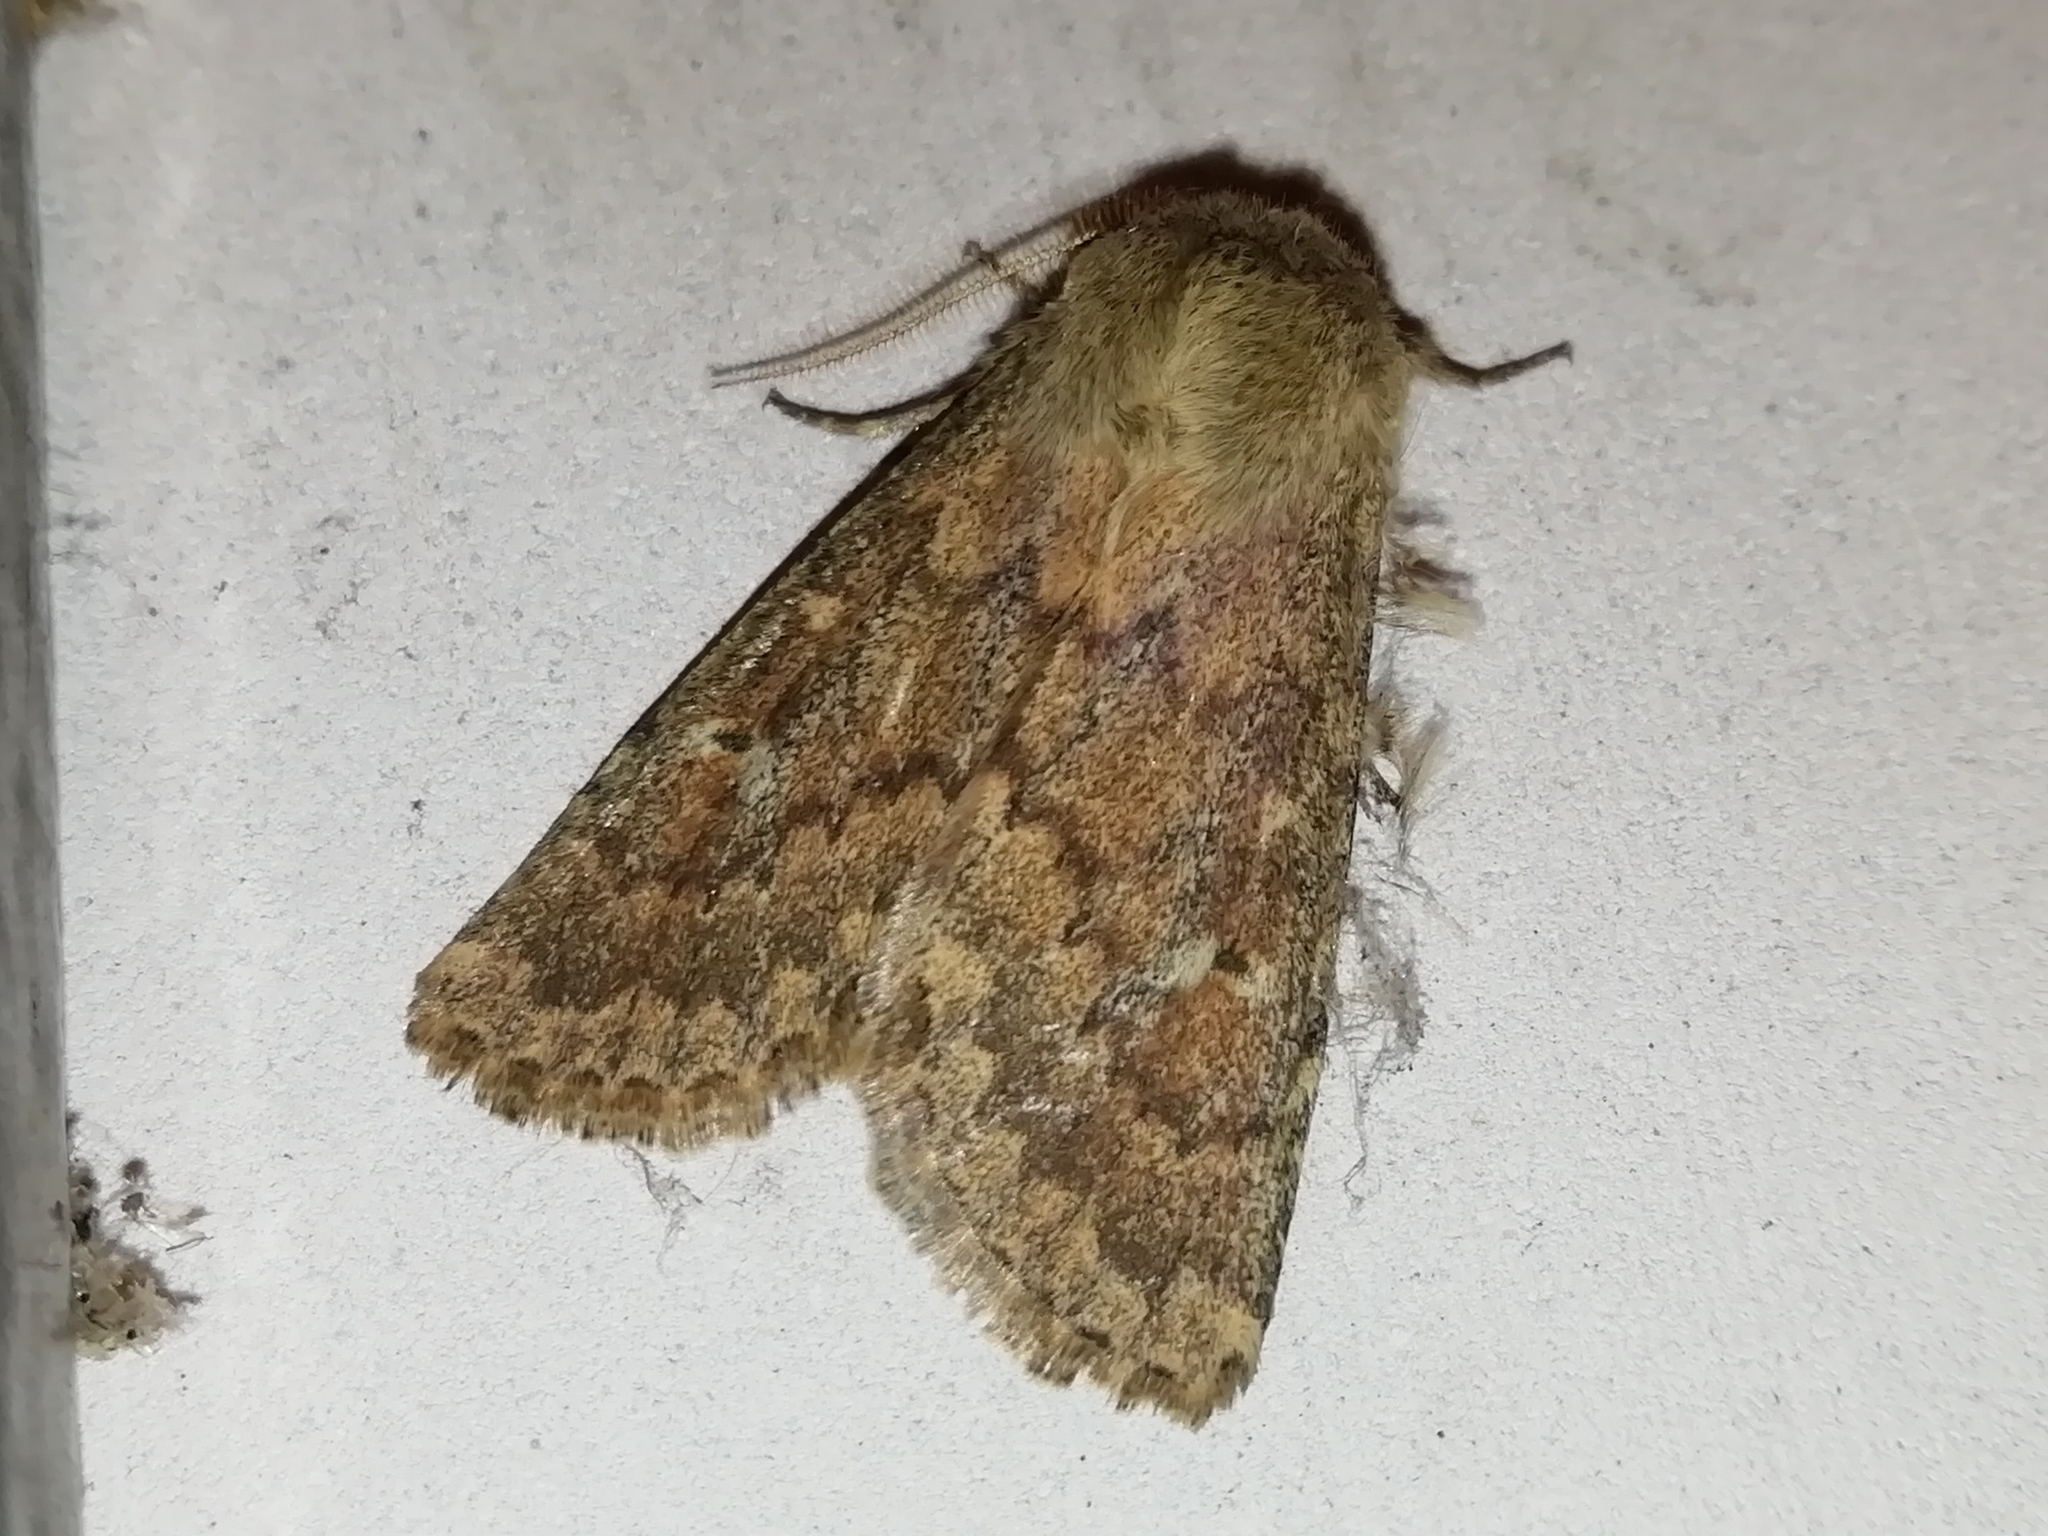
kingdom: Animalia
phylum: Arthropoda
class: Insecta
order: Lepidoptera
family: Noctuidae
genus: Dasypolia
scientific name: Dasypolia templi
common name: Brindled ochre
